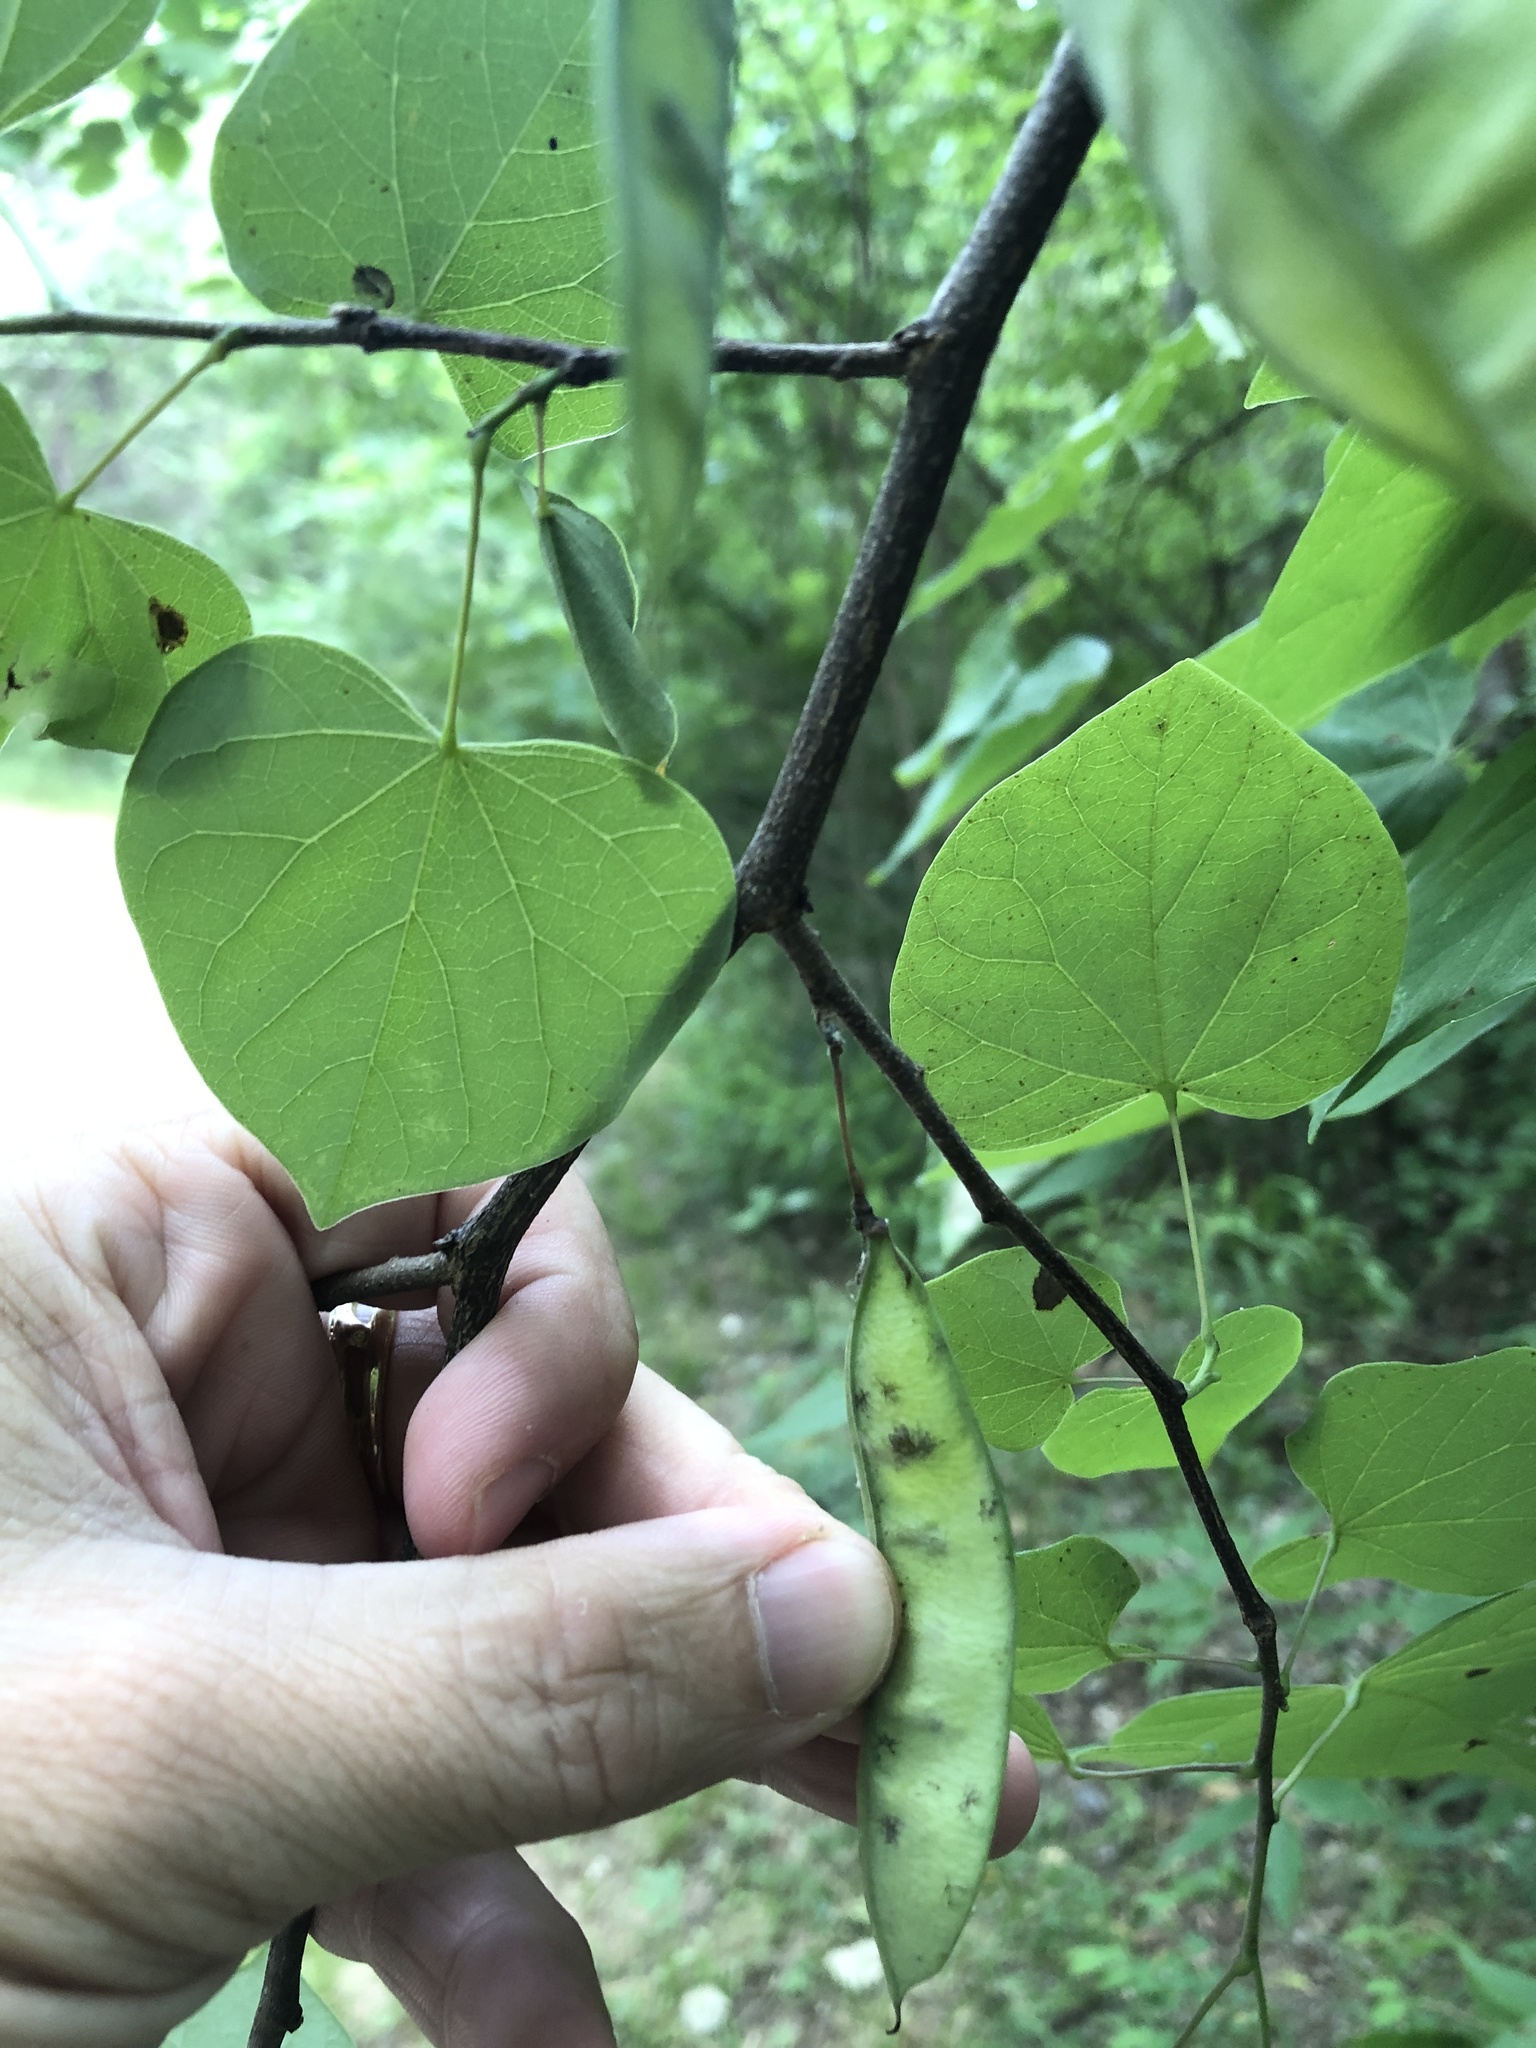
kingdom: Plantae
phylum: Tracheophyta
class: Magnoliopsida
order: Fabales
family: Fabaceae
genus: Cercis
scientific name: Cercis canadensis
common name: Eastern redbud
